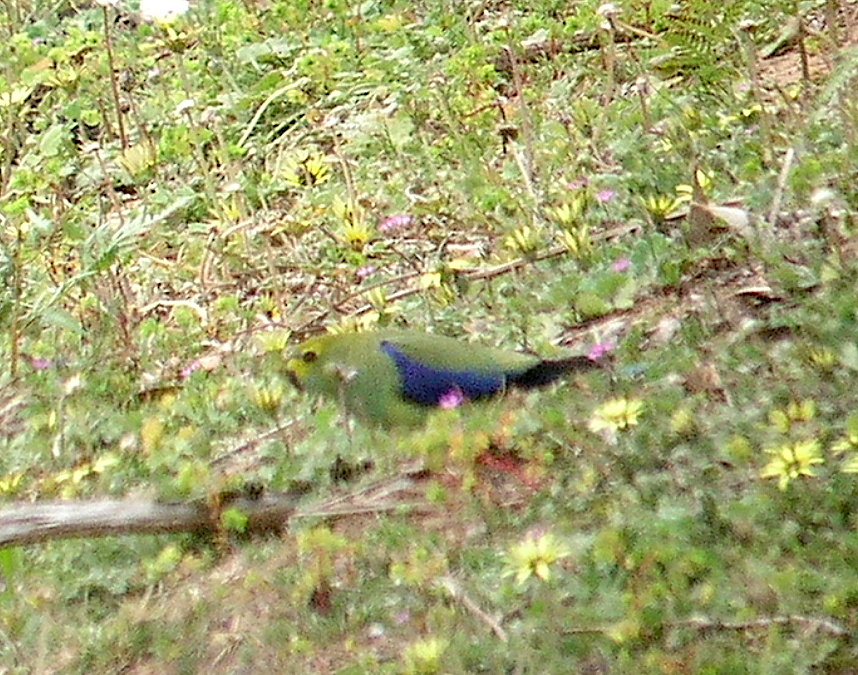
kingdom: Animalia
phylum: Chordata
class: Aves
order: Psittaciformes
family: Psittacidae
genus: Neophema
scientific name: Neophema chrysostoma
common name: Blue-winged parrot
